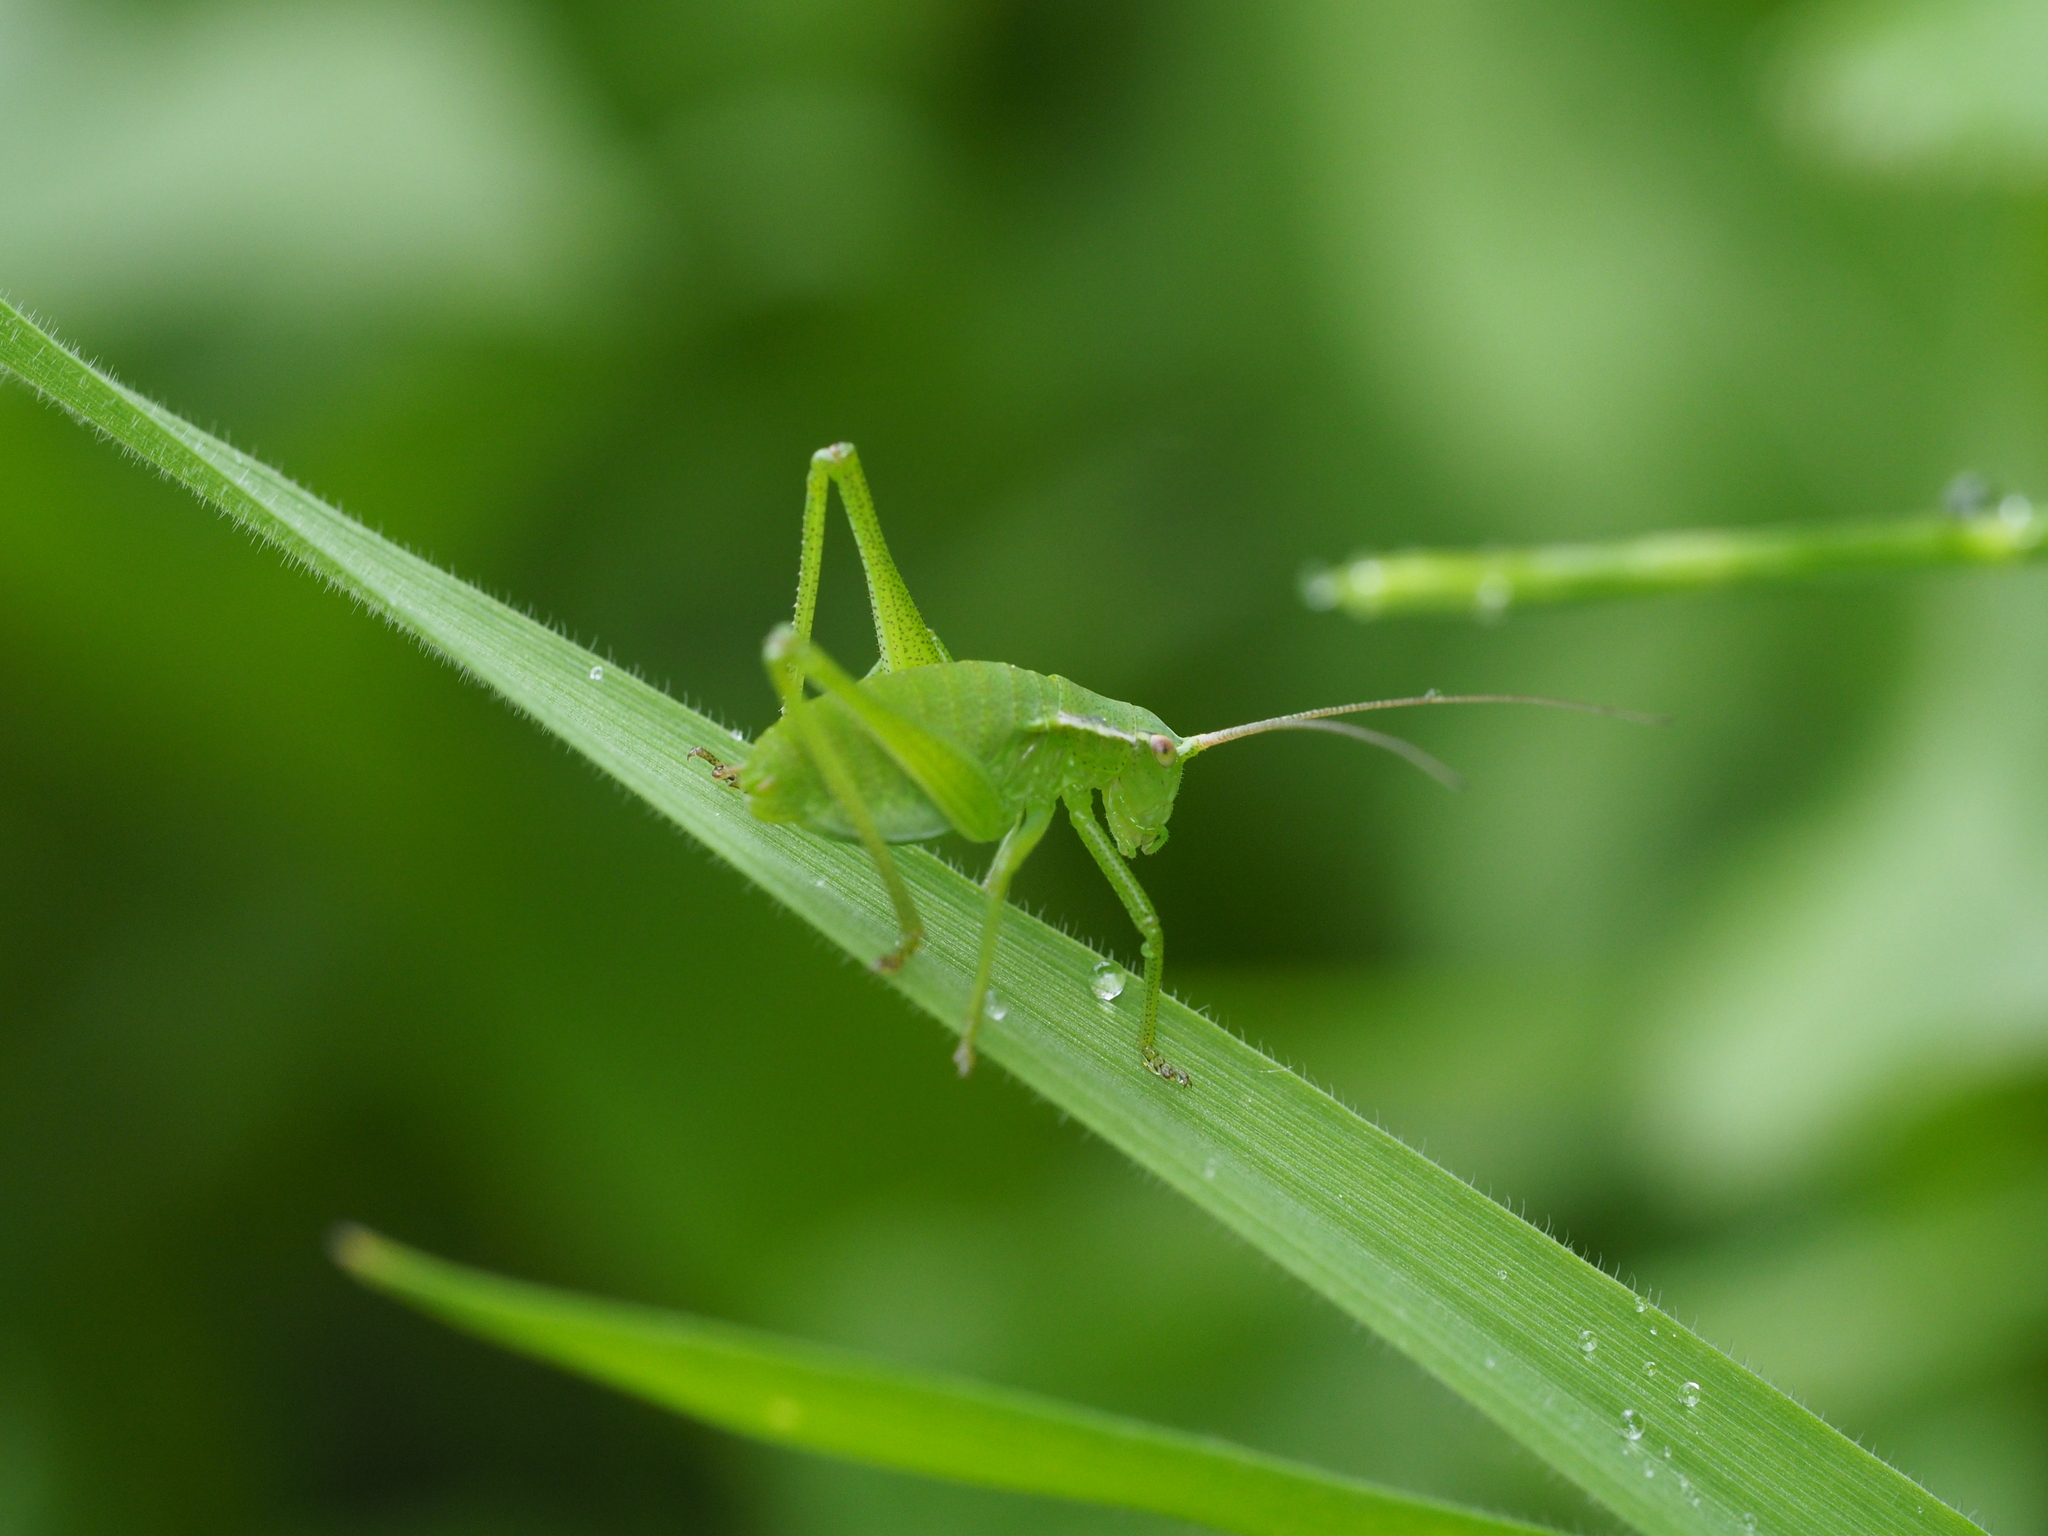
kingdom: Animalia
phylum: Arthropoda
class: Insecta
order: Orthoptera
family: Tettigoniidae
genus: Isophya
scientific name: Isophya brevicauda
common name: Short-tailed plump bush-cricket
